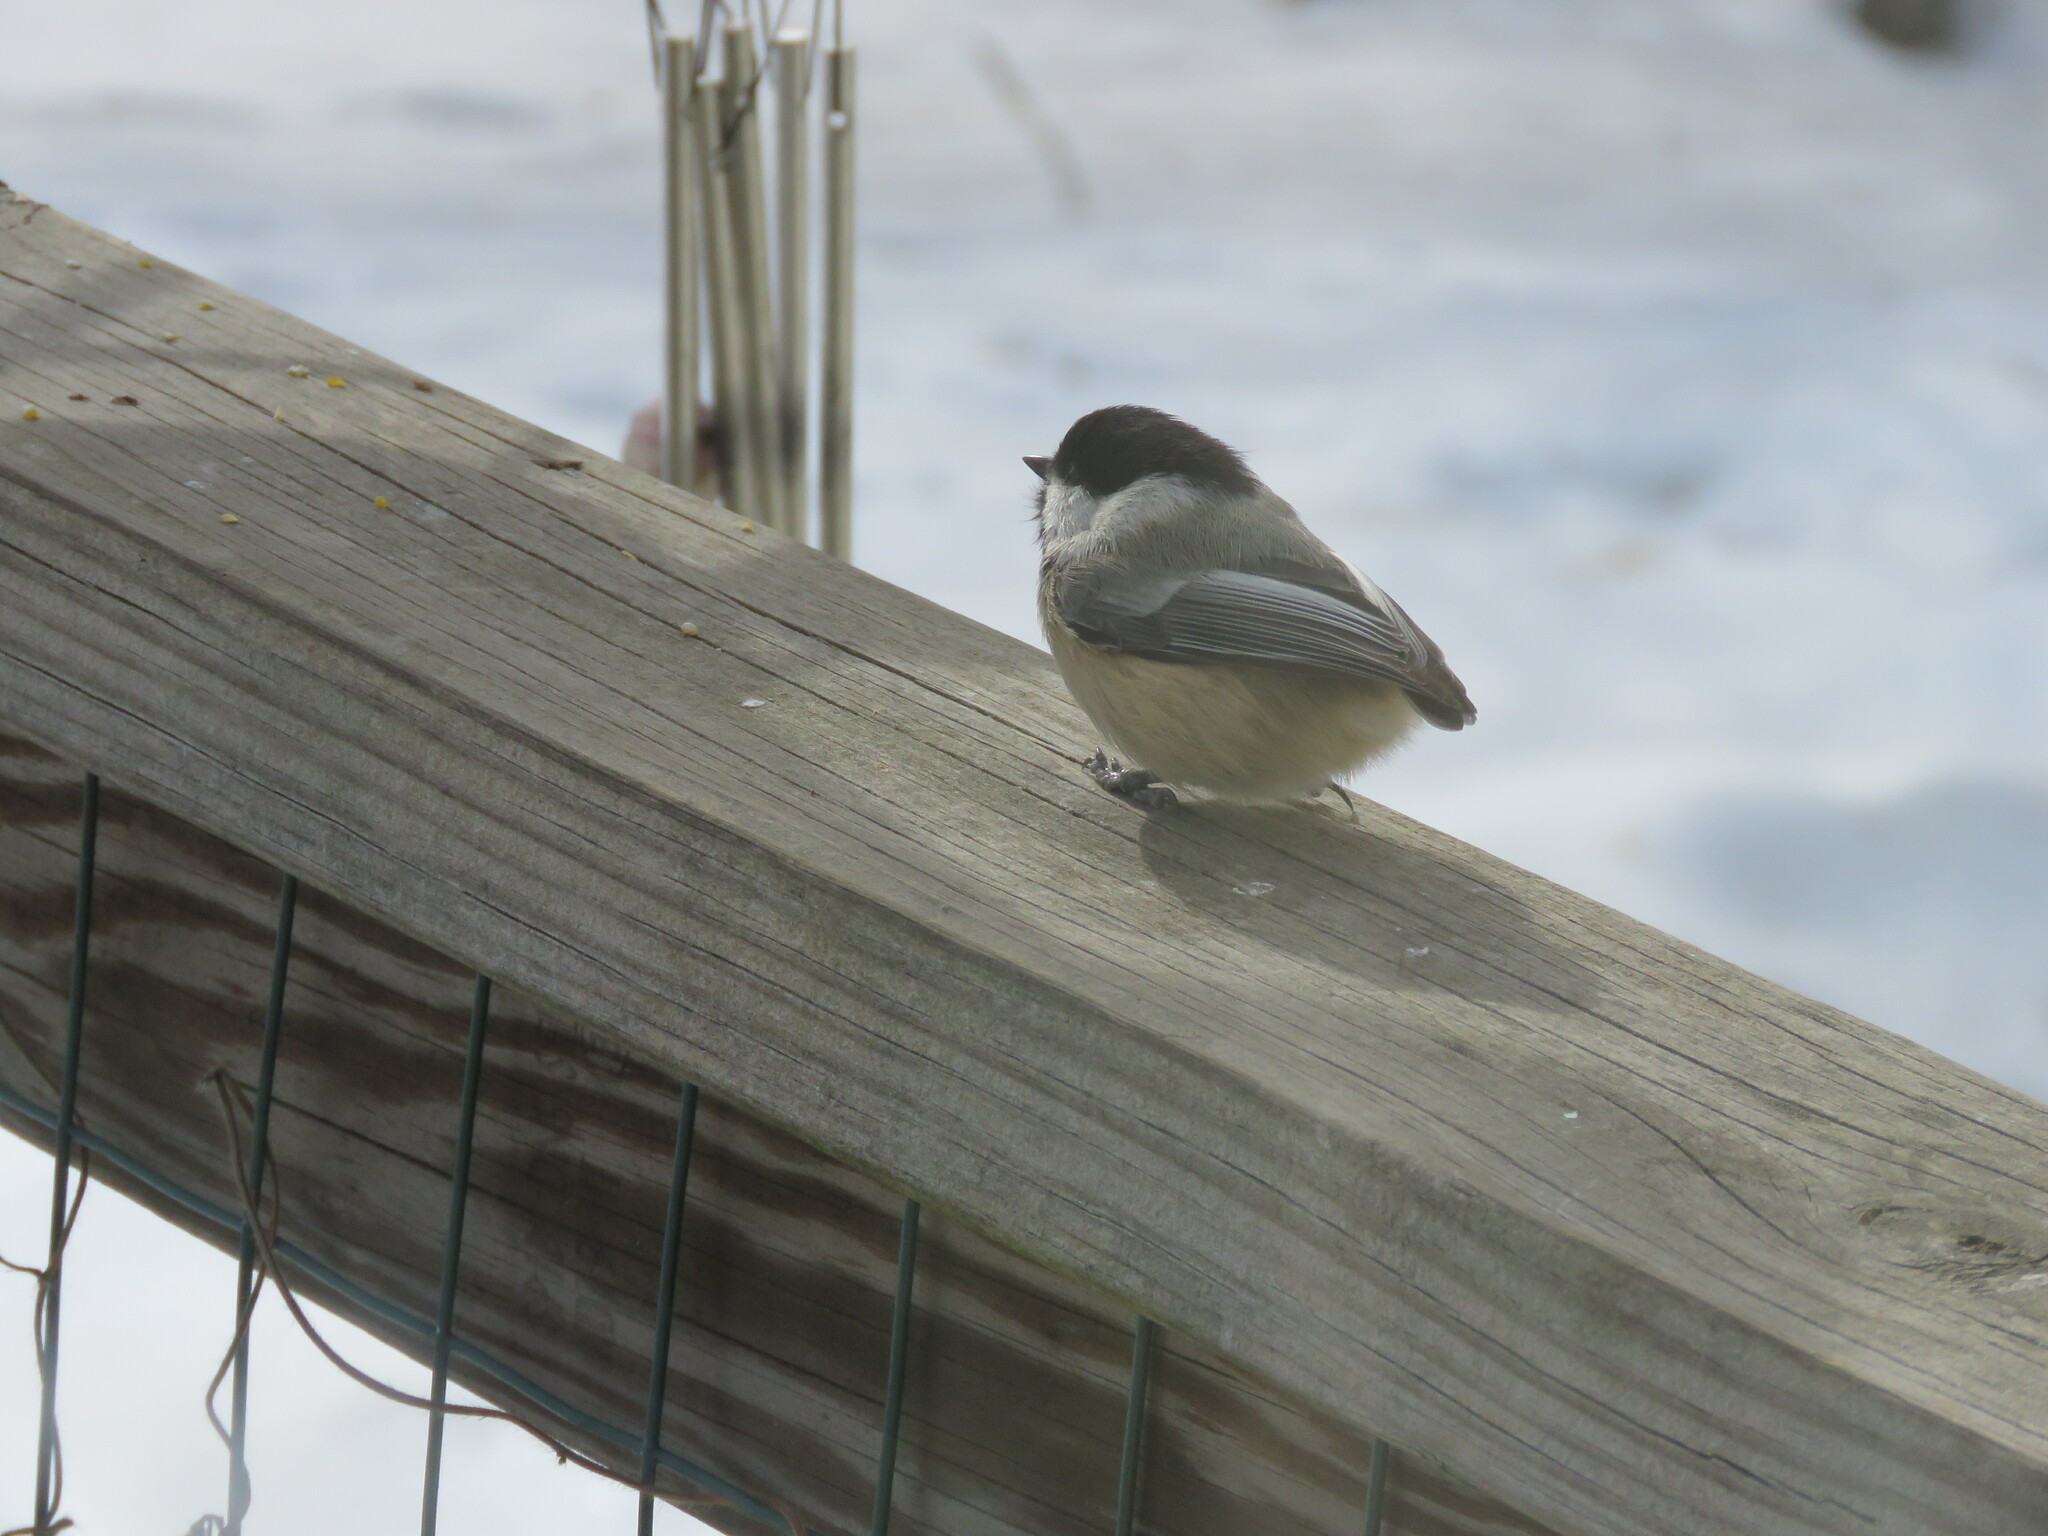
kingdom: Animalia
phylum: Chordata
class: Aves
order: Passeriformes
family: Paridae
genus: Poecile
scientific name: Poecile atricapillus
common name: Black-capped chickadee
